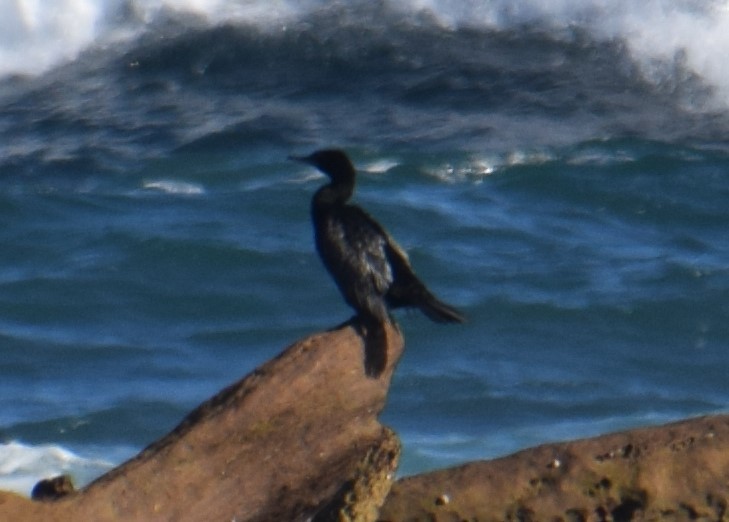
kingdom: Animalia
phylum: Chordata
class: Aves
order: Suliformes
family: Phalacrocoracidae
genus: Phalacrocorax
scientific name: Phalacrocorax sulcirostris
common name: Little black cormorant
